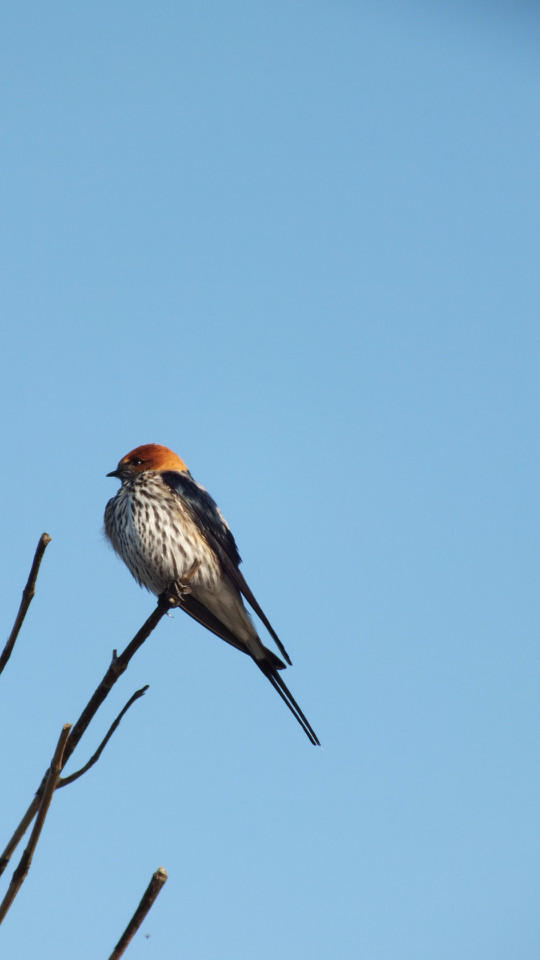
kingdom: Animalia
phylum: Chordata
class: Aves
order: Passeriformes
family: Hirundinidae
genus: Cecropis
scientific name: Cecropis abyssinica
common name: Lesser striped-swallow
